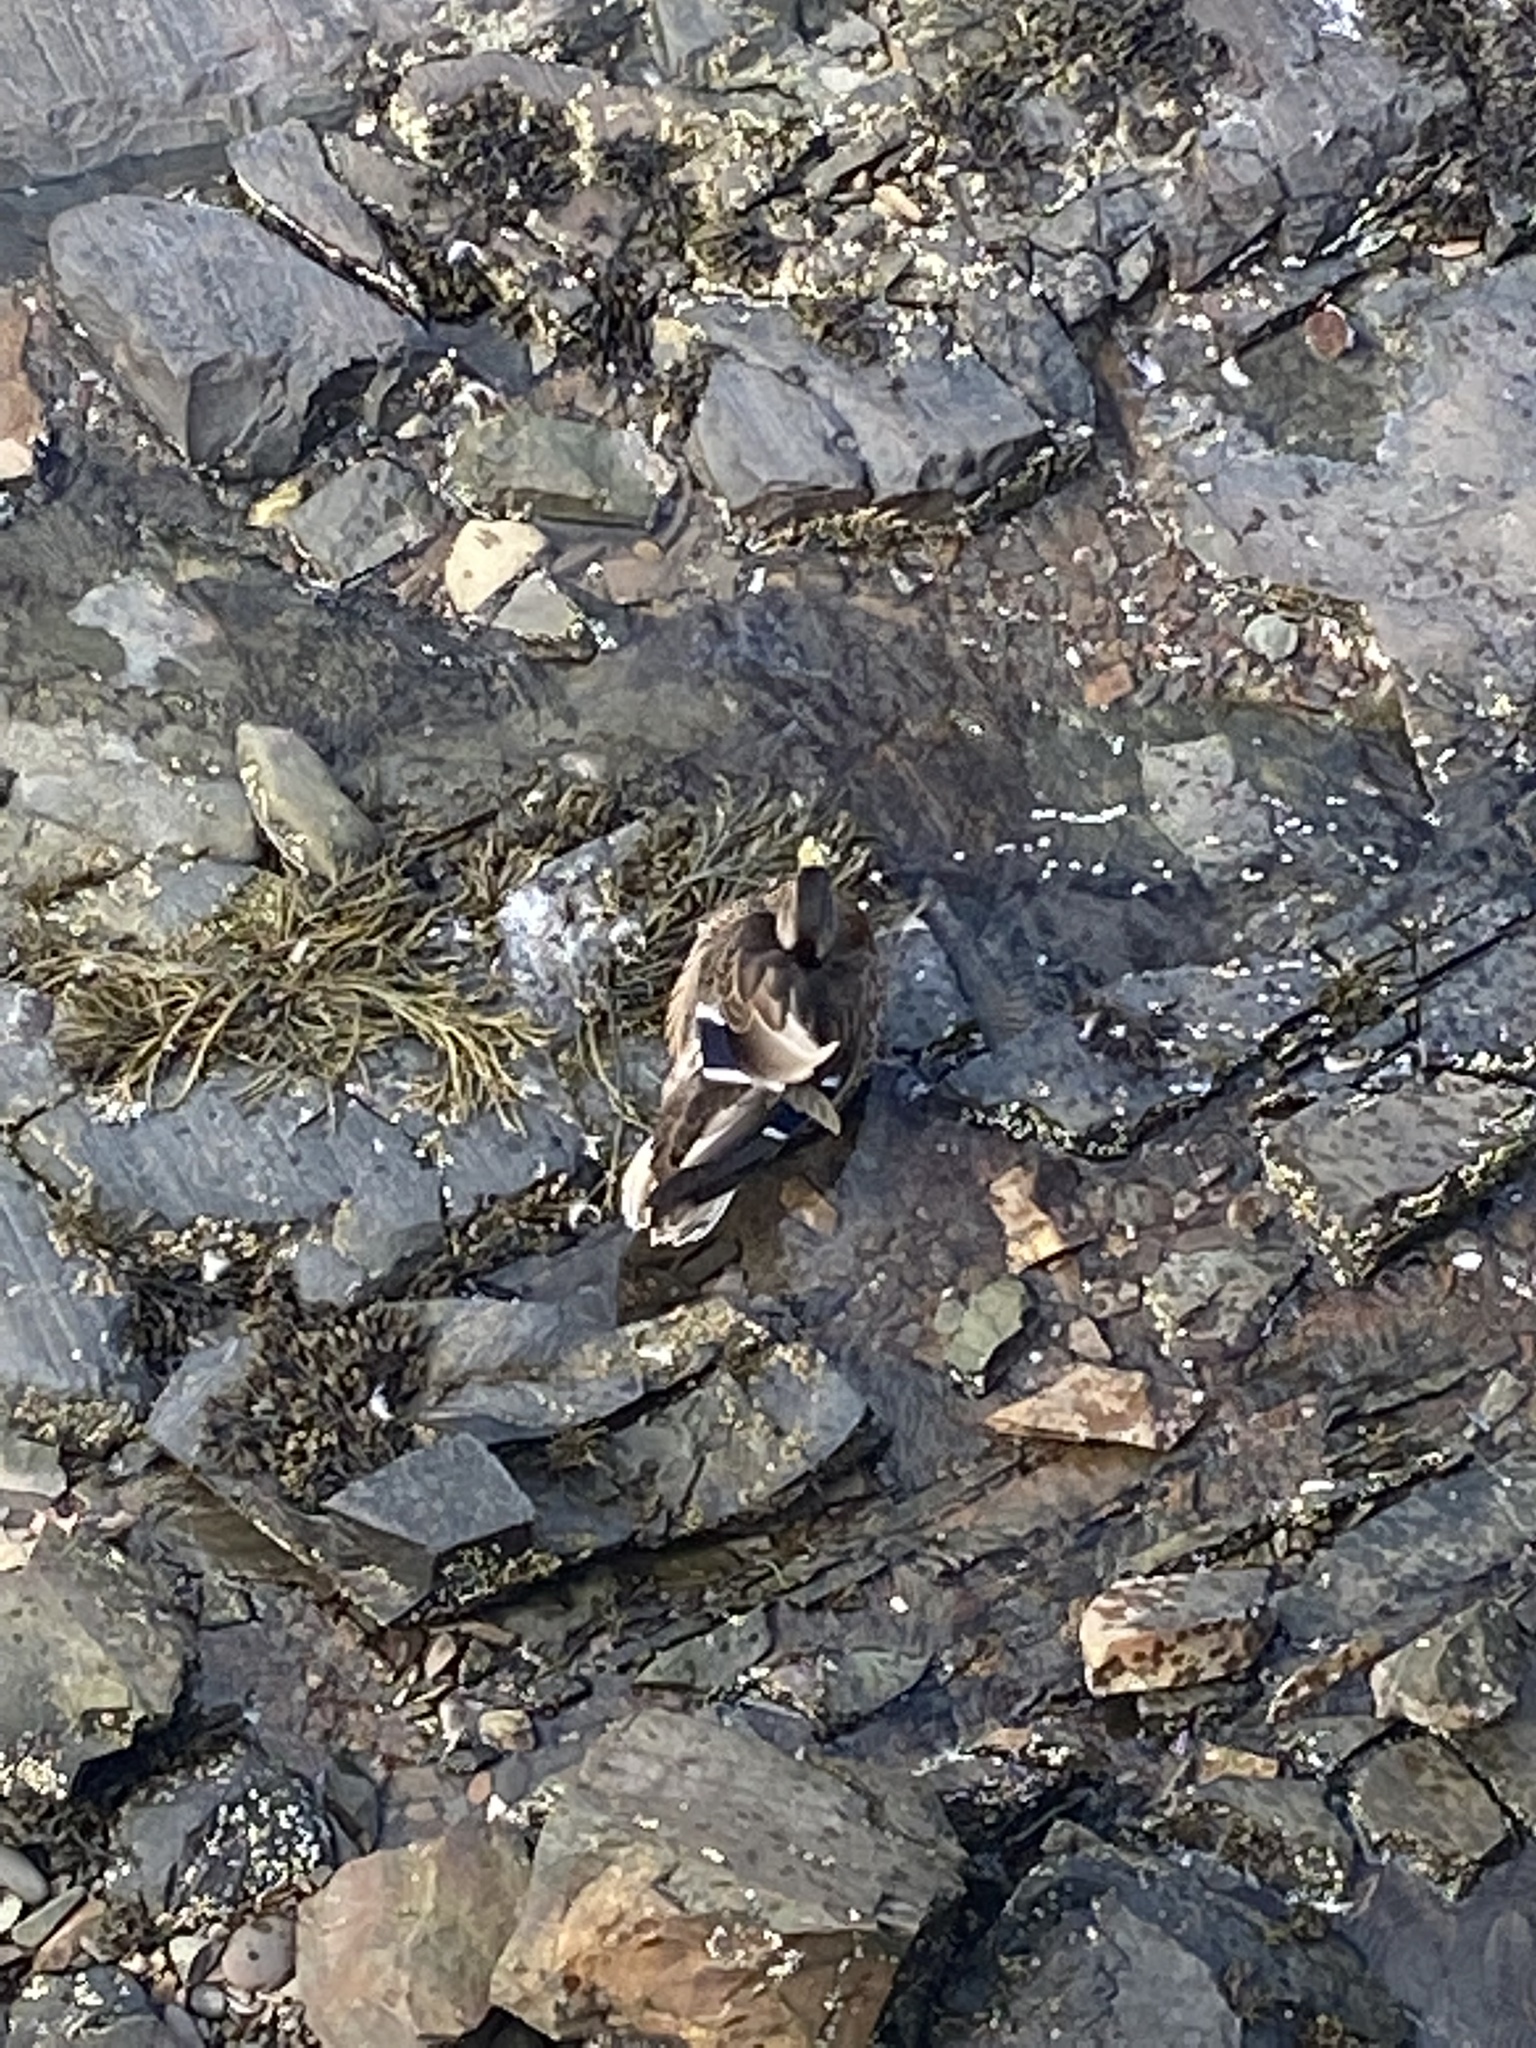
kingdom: Animalia
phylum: Chordata
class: Aves
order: Anseriformes
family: Anatidae
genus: Anas
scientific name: Anas platyrhynchos
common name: Mallard
